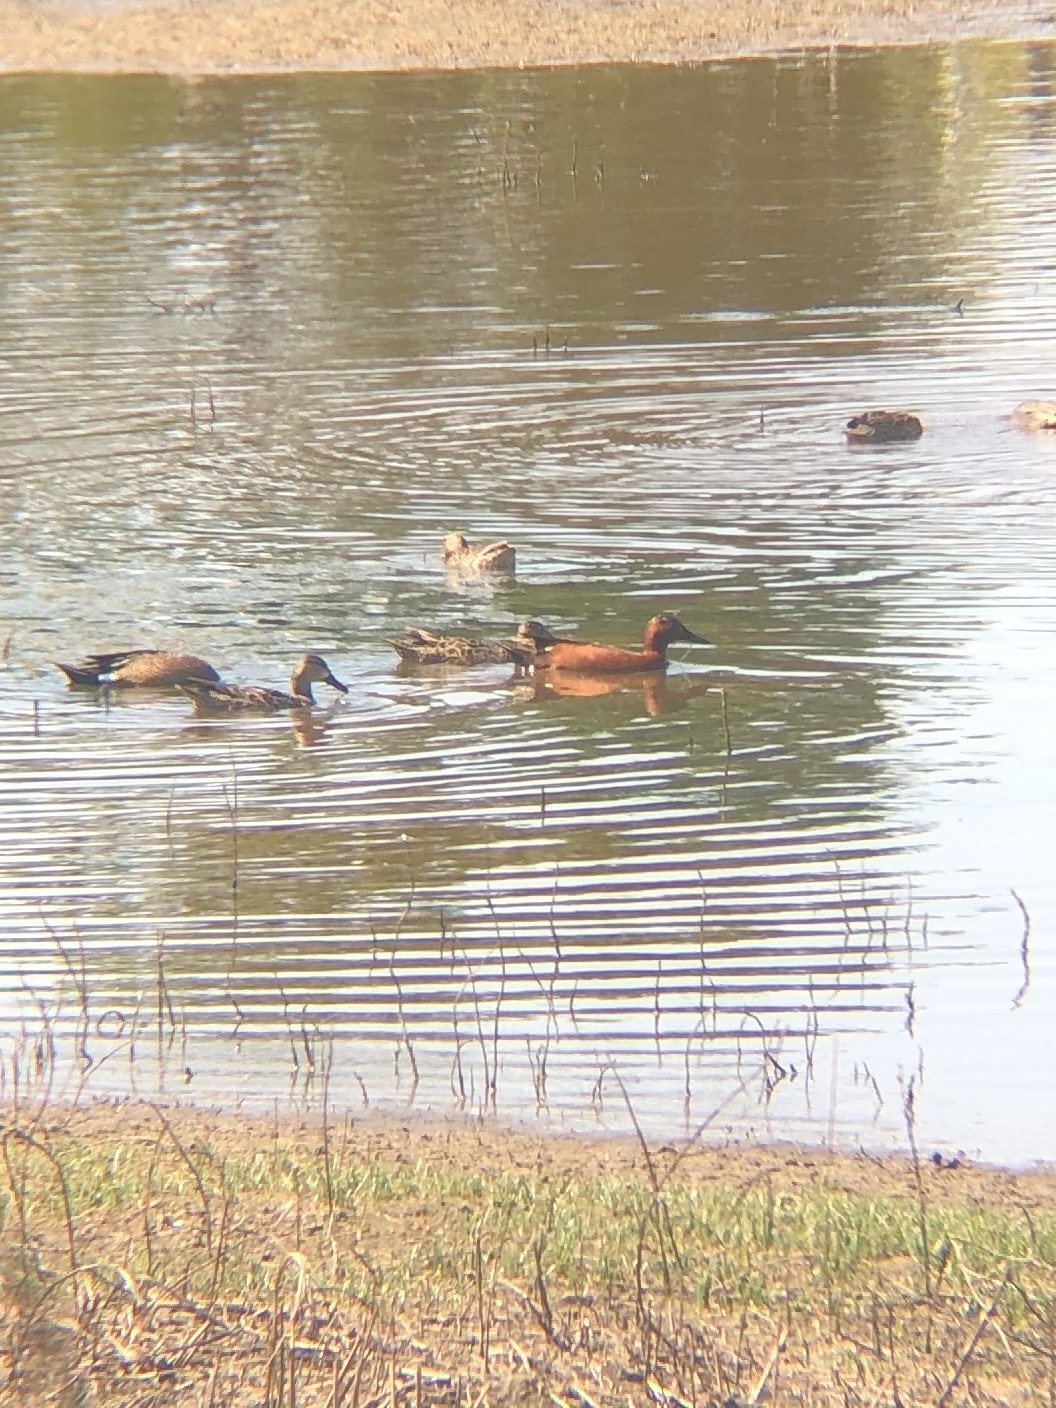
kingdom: Animalia
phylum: Chordata
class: Aves
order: Anseriformes
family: Anatidae
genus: Spatula
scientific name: Spatula cyanoptera
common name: Cinnamon teal
